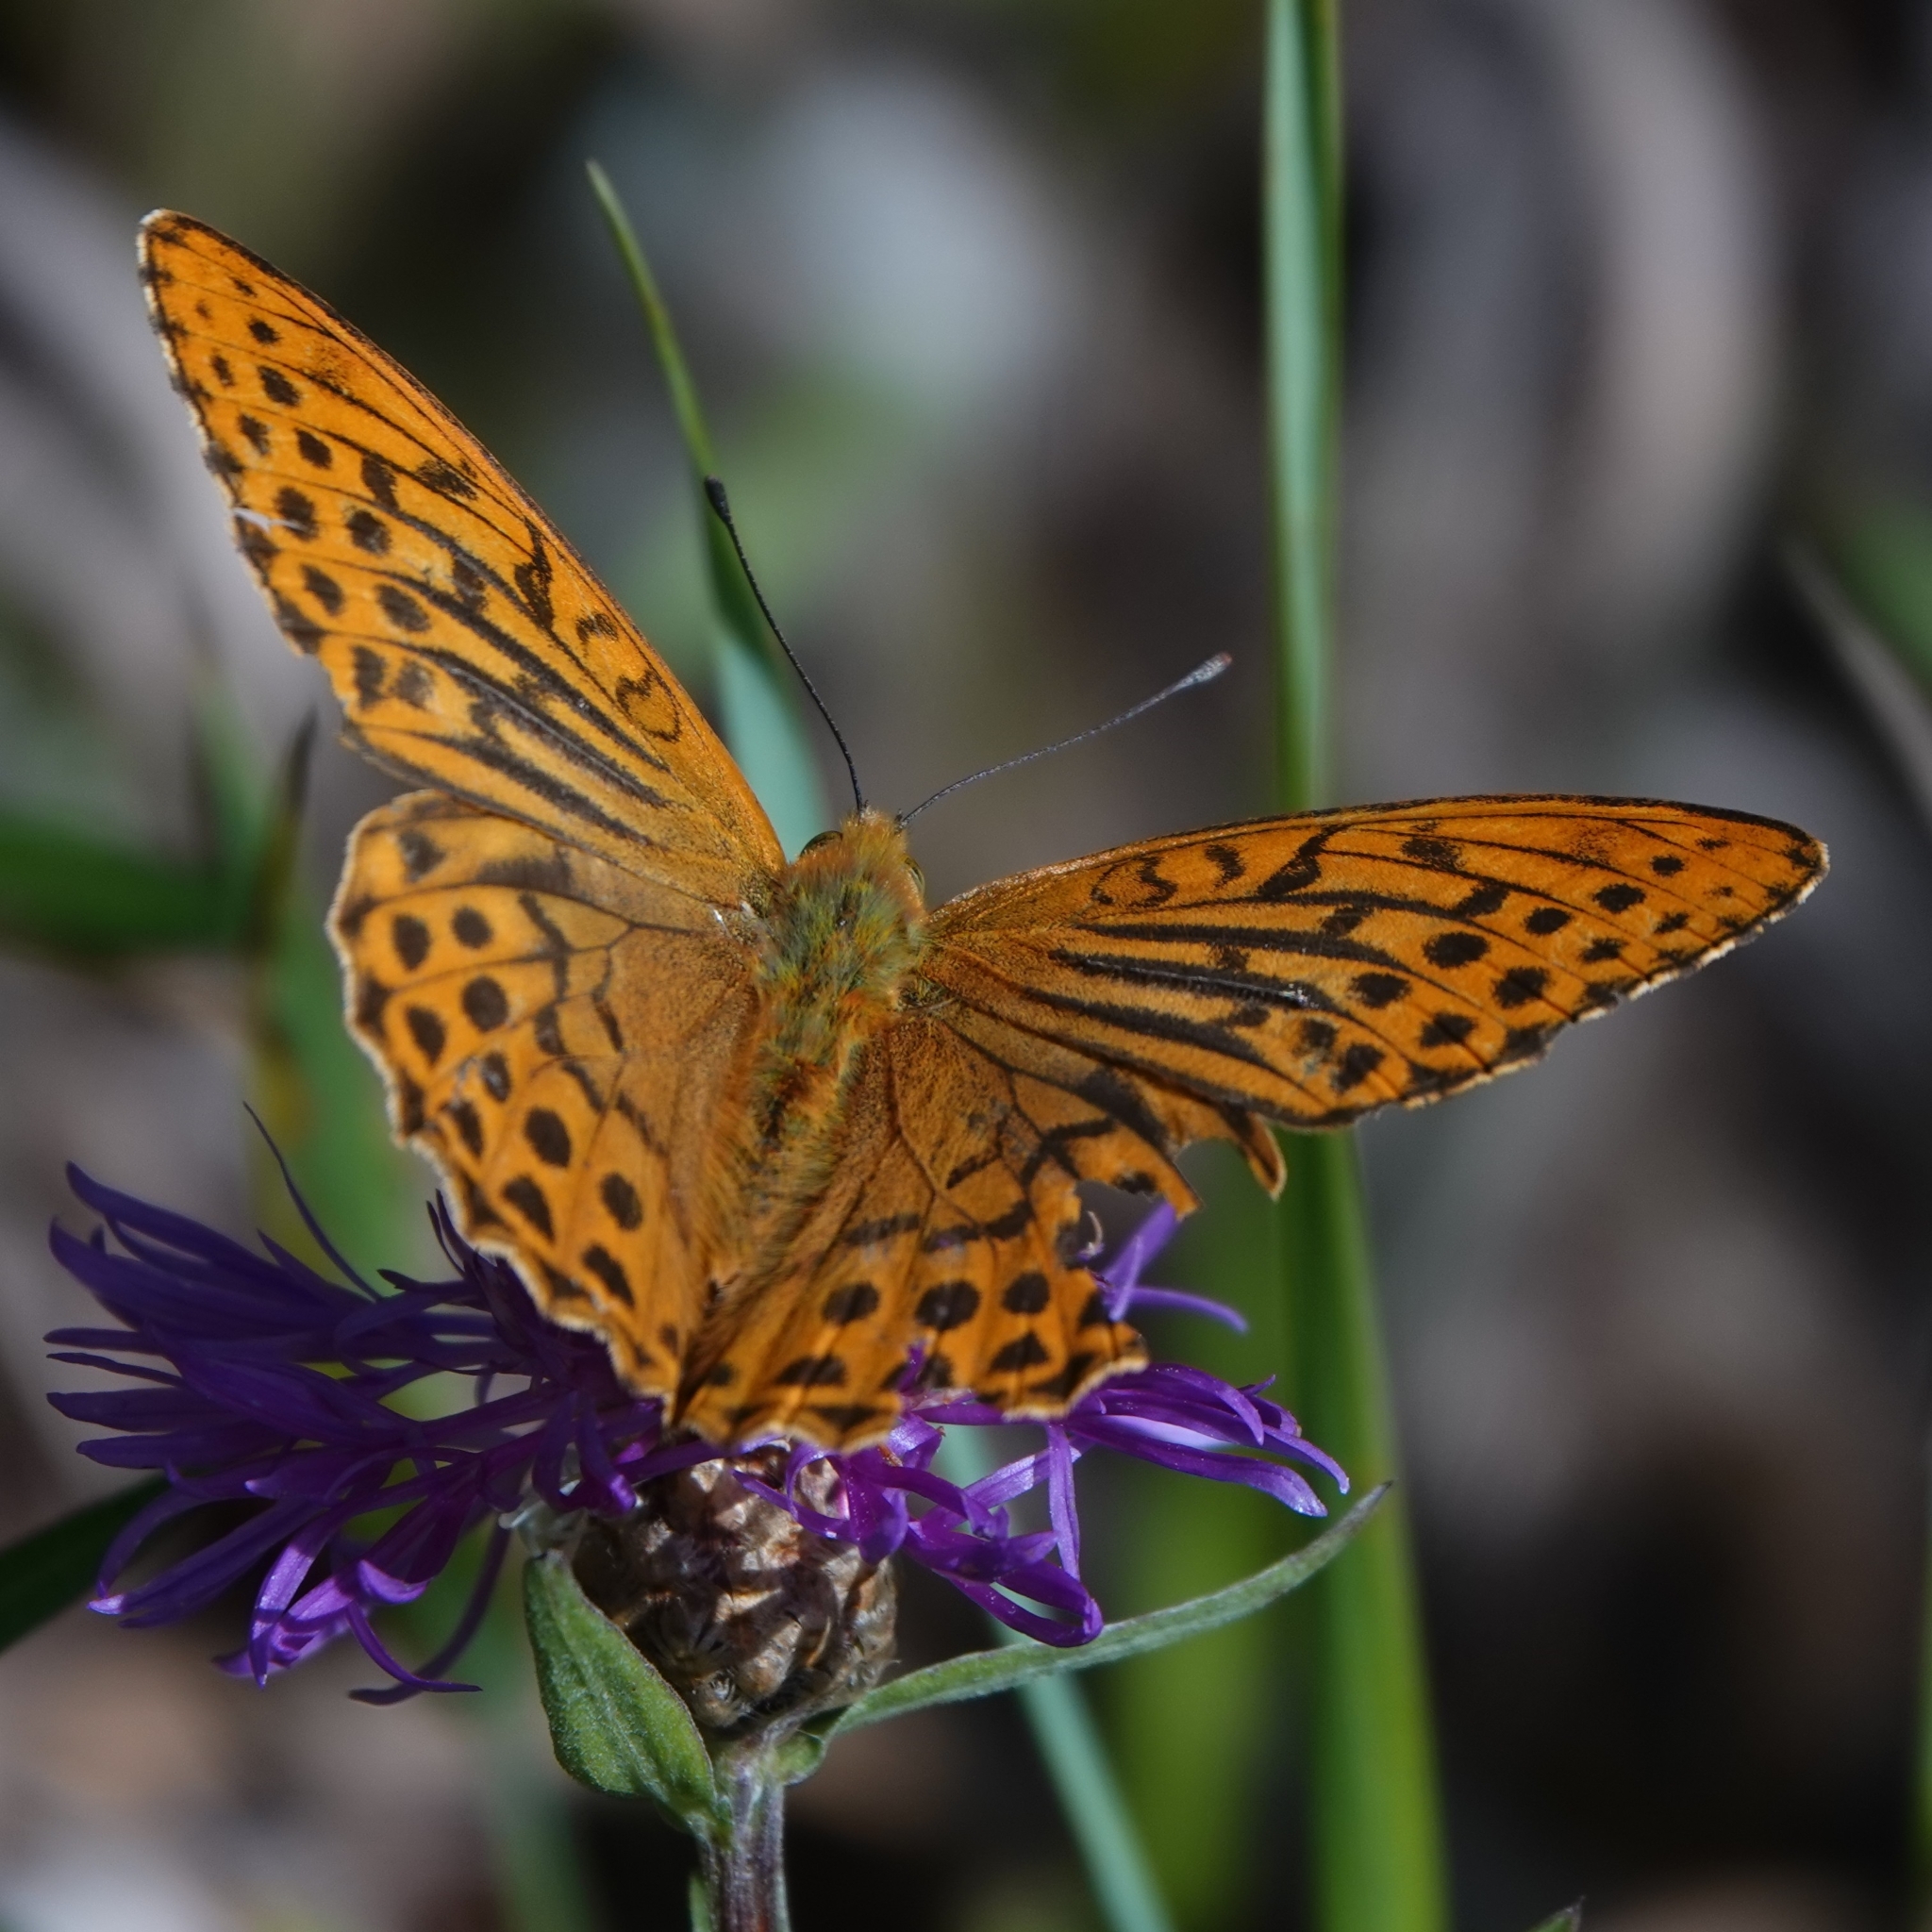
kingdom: Animalia
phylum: Arthropoda
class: Insecta
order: Lepidoptera
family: Nymphalidae
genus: Argynnis
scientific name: Argynnis paphia
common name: Silver-washed fritillary
